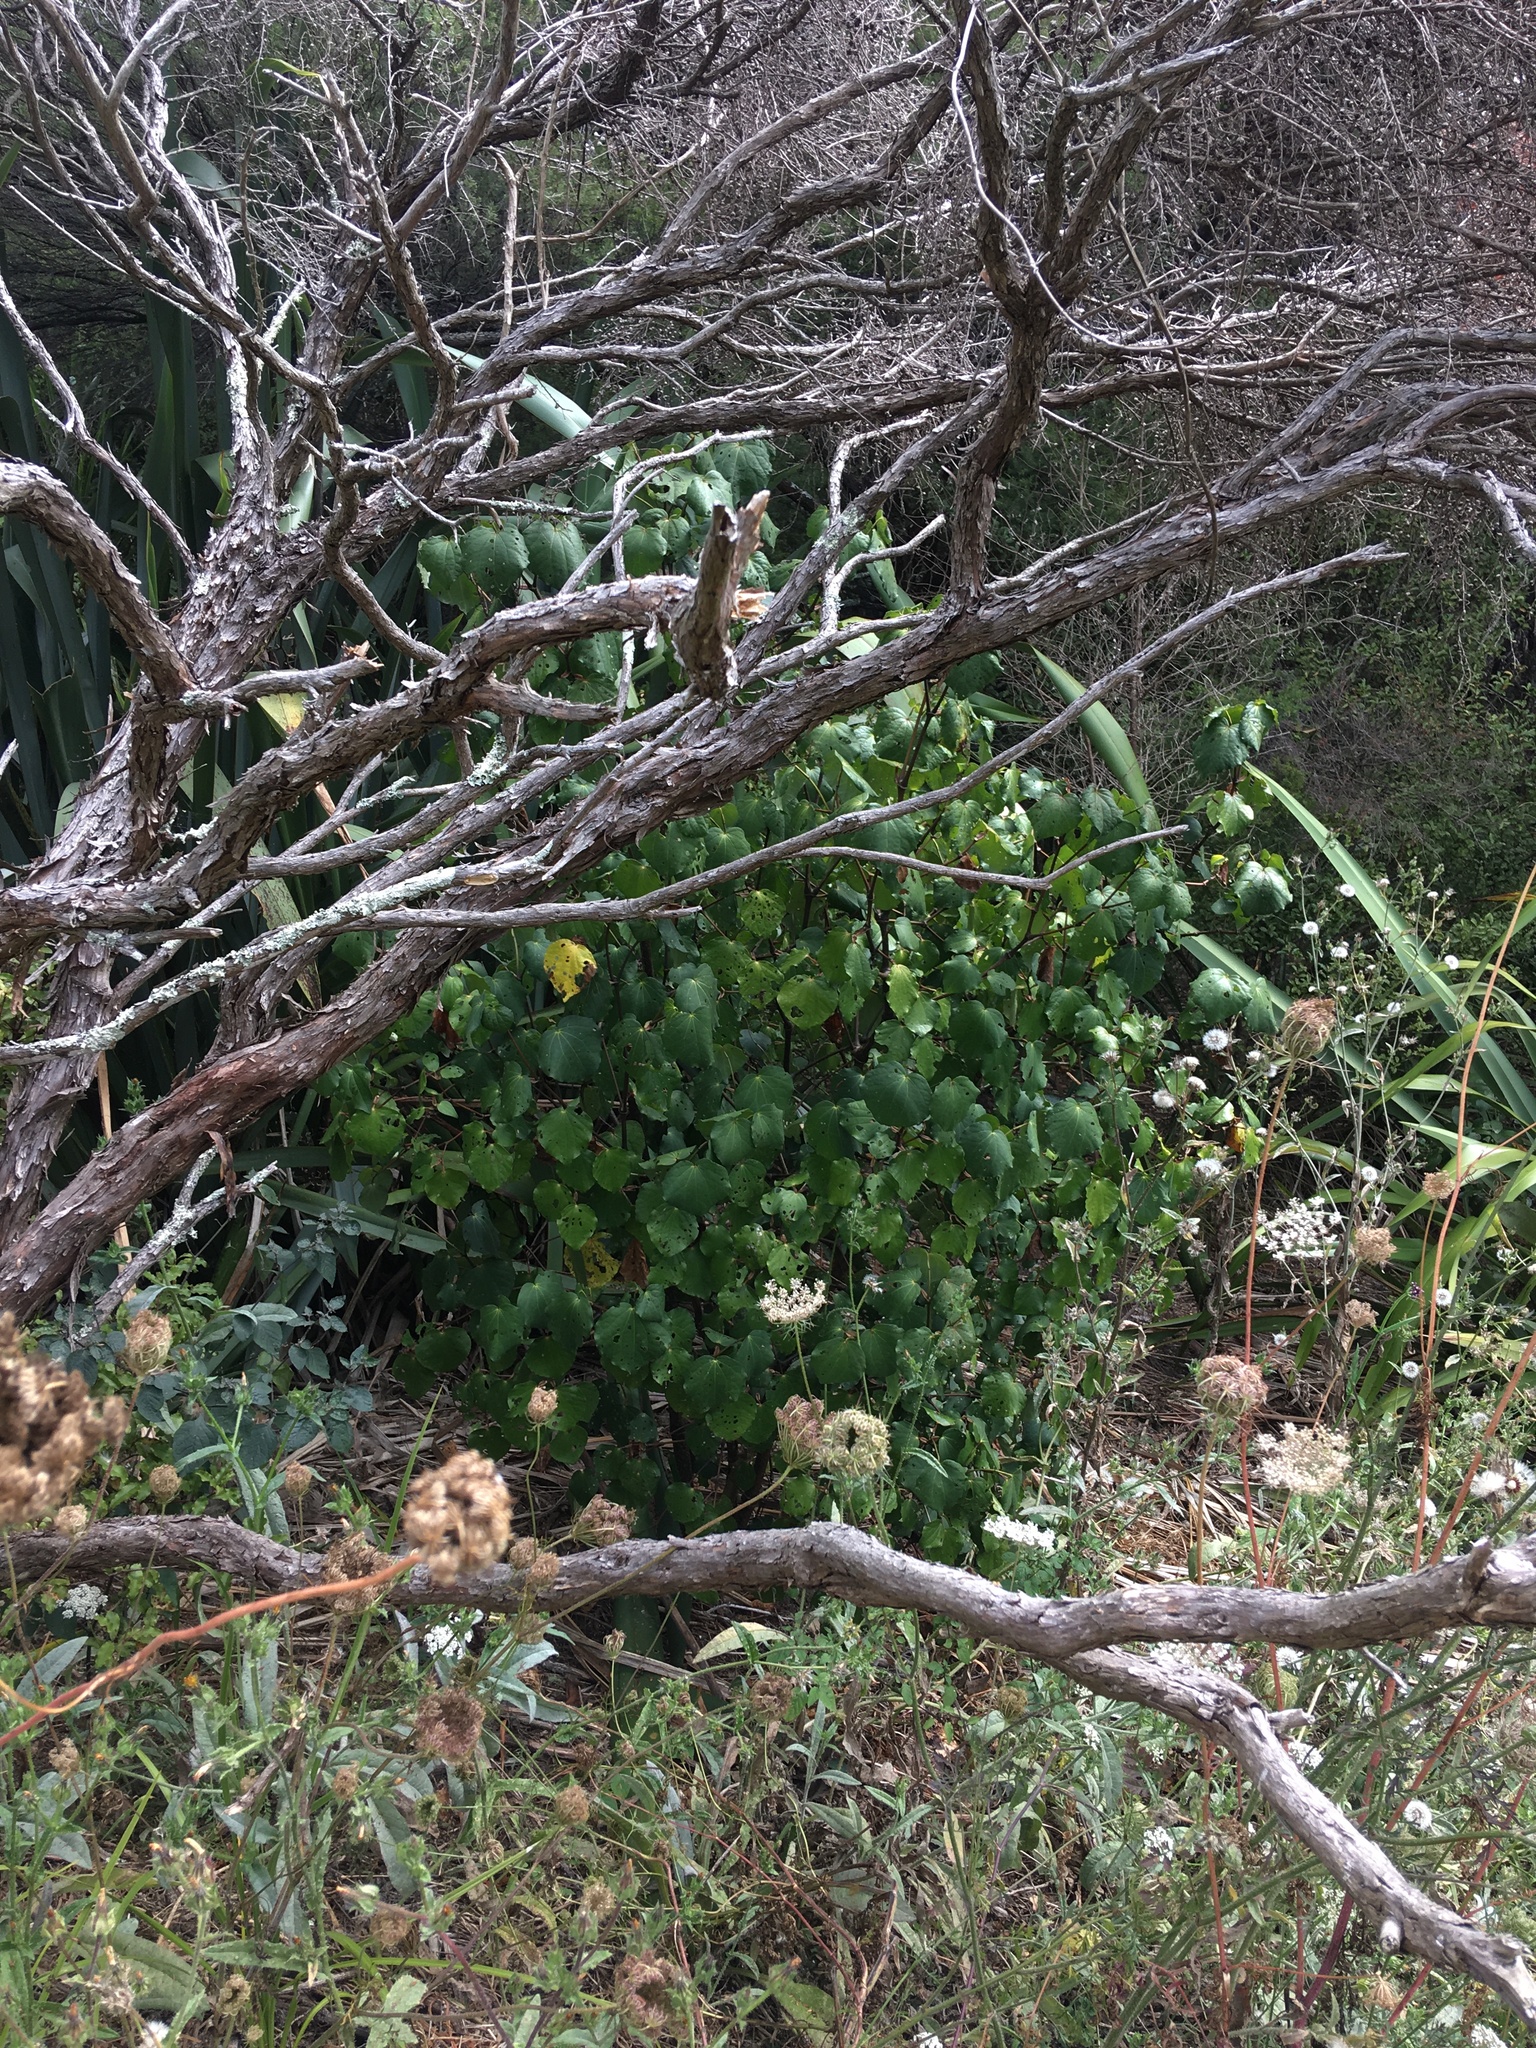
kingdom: Plantae
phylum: Tracheophyta
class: Magnoliopsida
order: Piperales
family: Piperaceae
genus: Macropiper
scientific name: Macropiper excelsum
